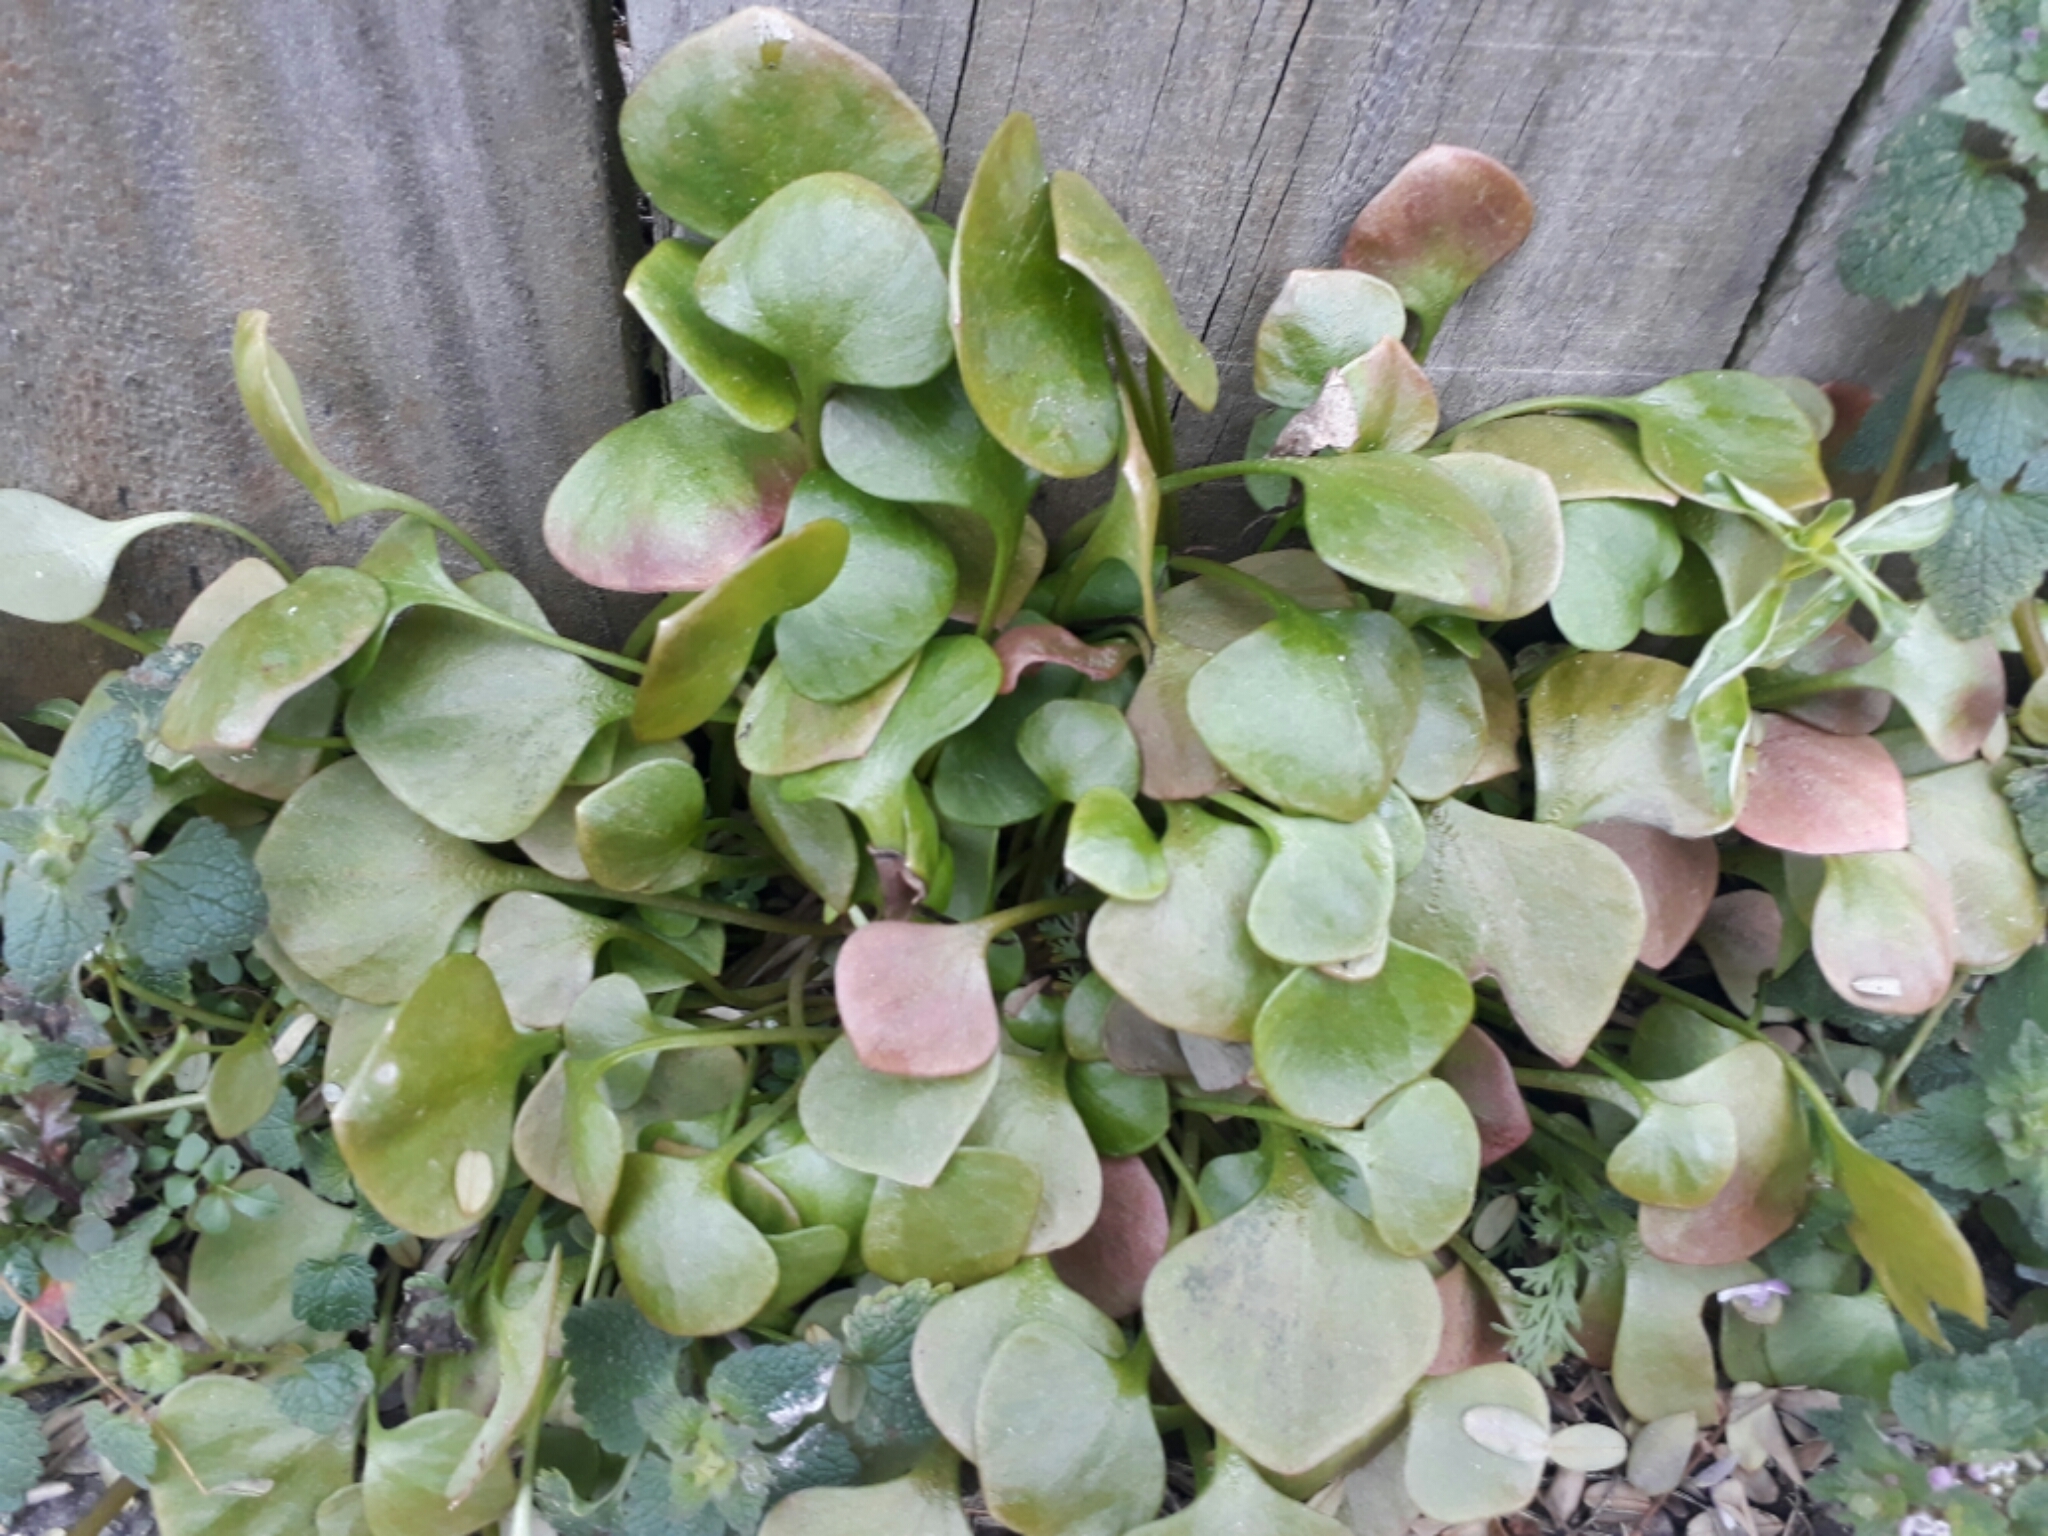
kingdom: Plantae
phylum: Tracheophyta
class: Magnoliopsida
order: Caryophyllales
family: Montiaceae
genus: Claytonia
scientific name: Claytonia perfoliata
